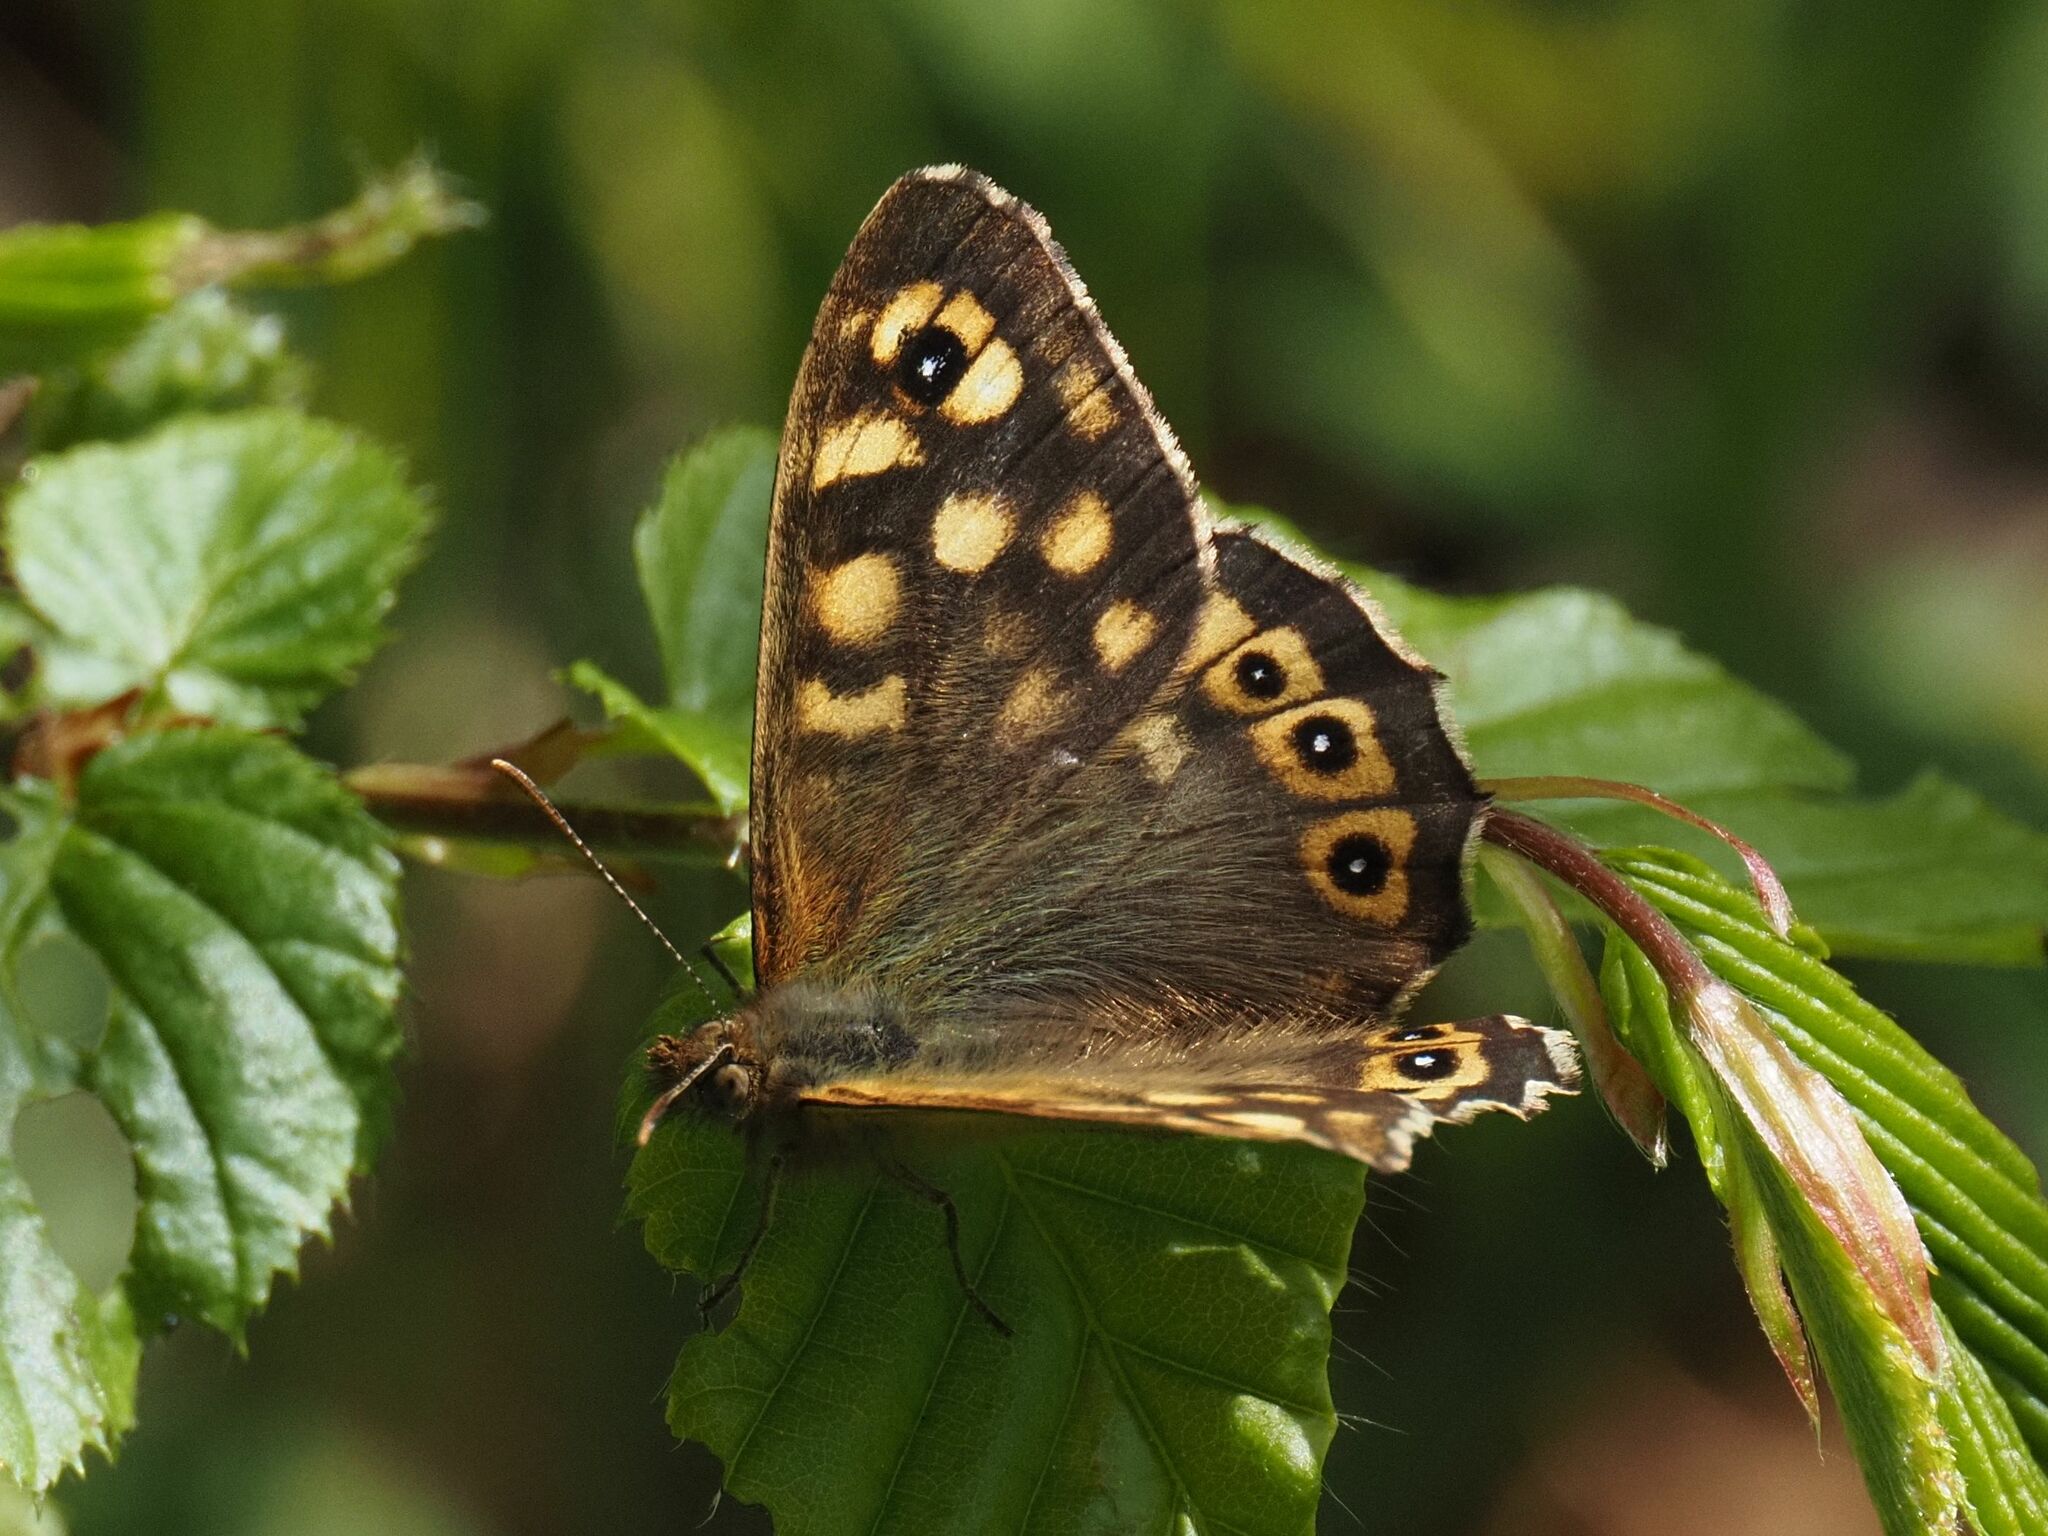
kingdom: Animalia
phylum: Arthropoda
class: Insecta
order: Lepidoptera
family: Nymphalidae
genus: Pararge
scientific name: Pararge aegeria
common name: Speckled wood
